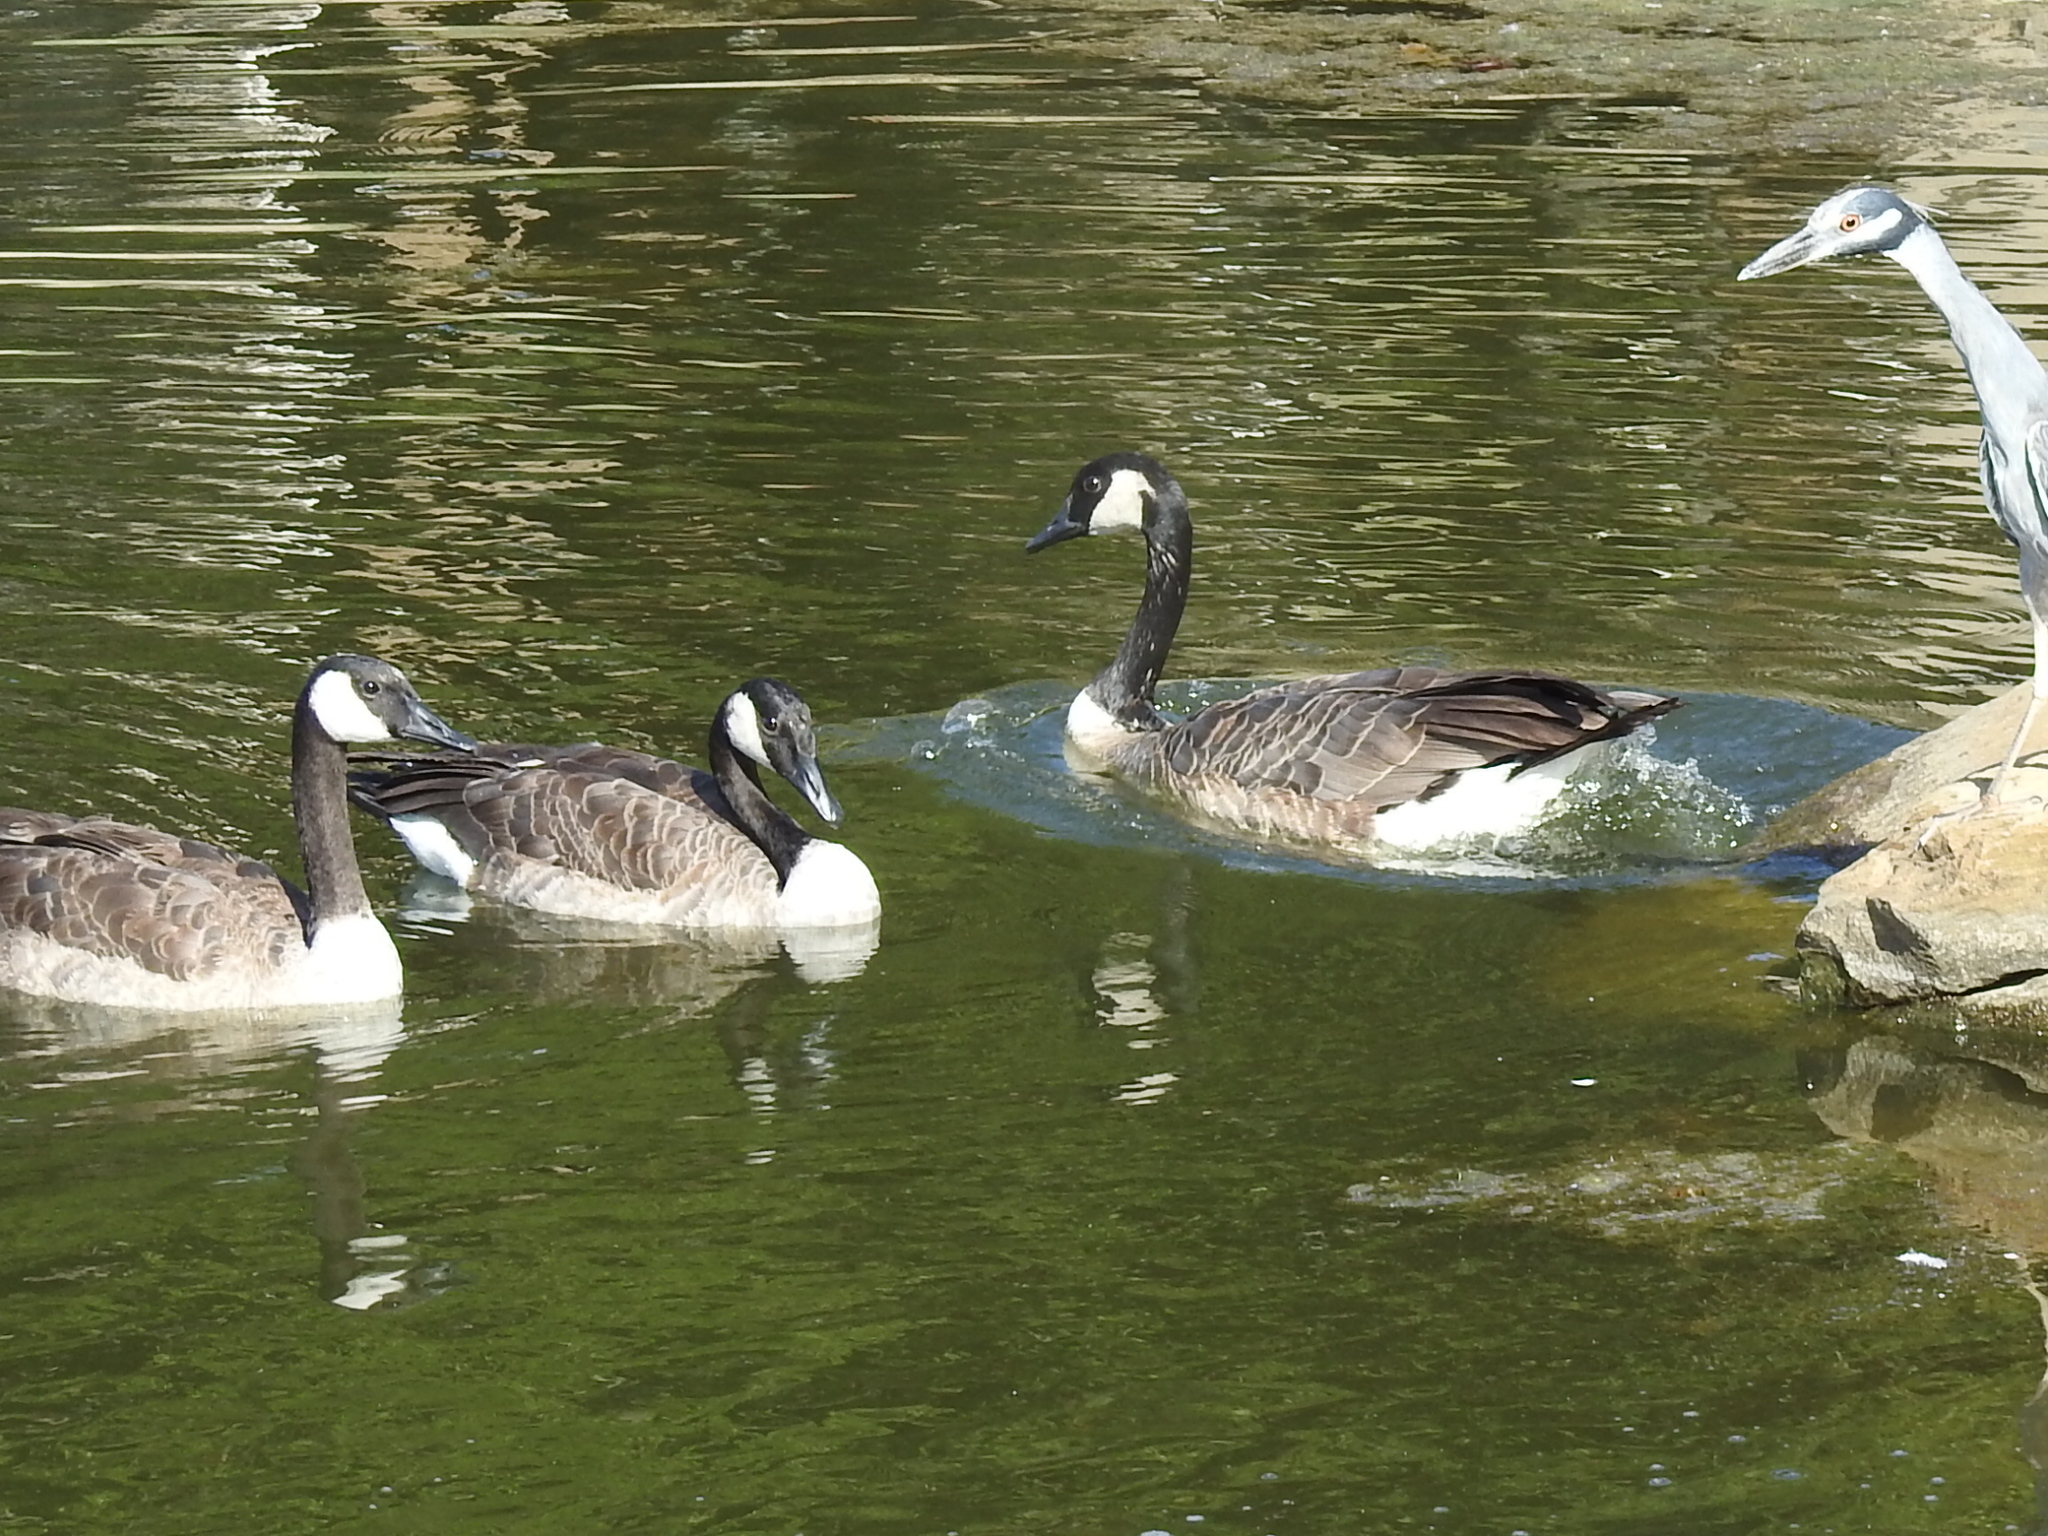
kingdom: Animalia
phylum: Chordata
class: Aves
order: Anseriformes
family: Anatidae
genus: Branta
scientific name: Branta canadensis
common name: Canada goose
